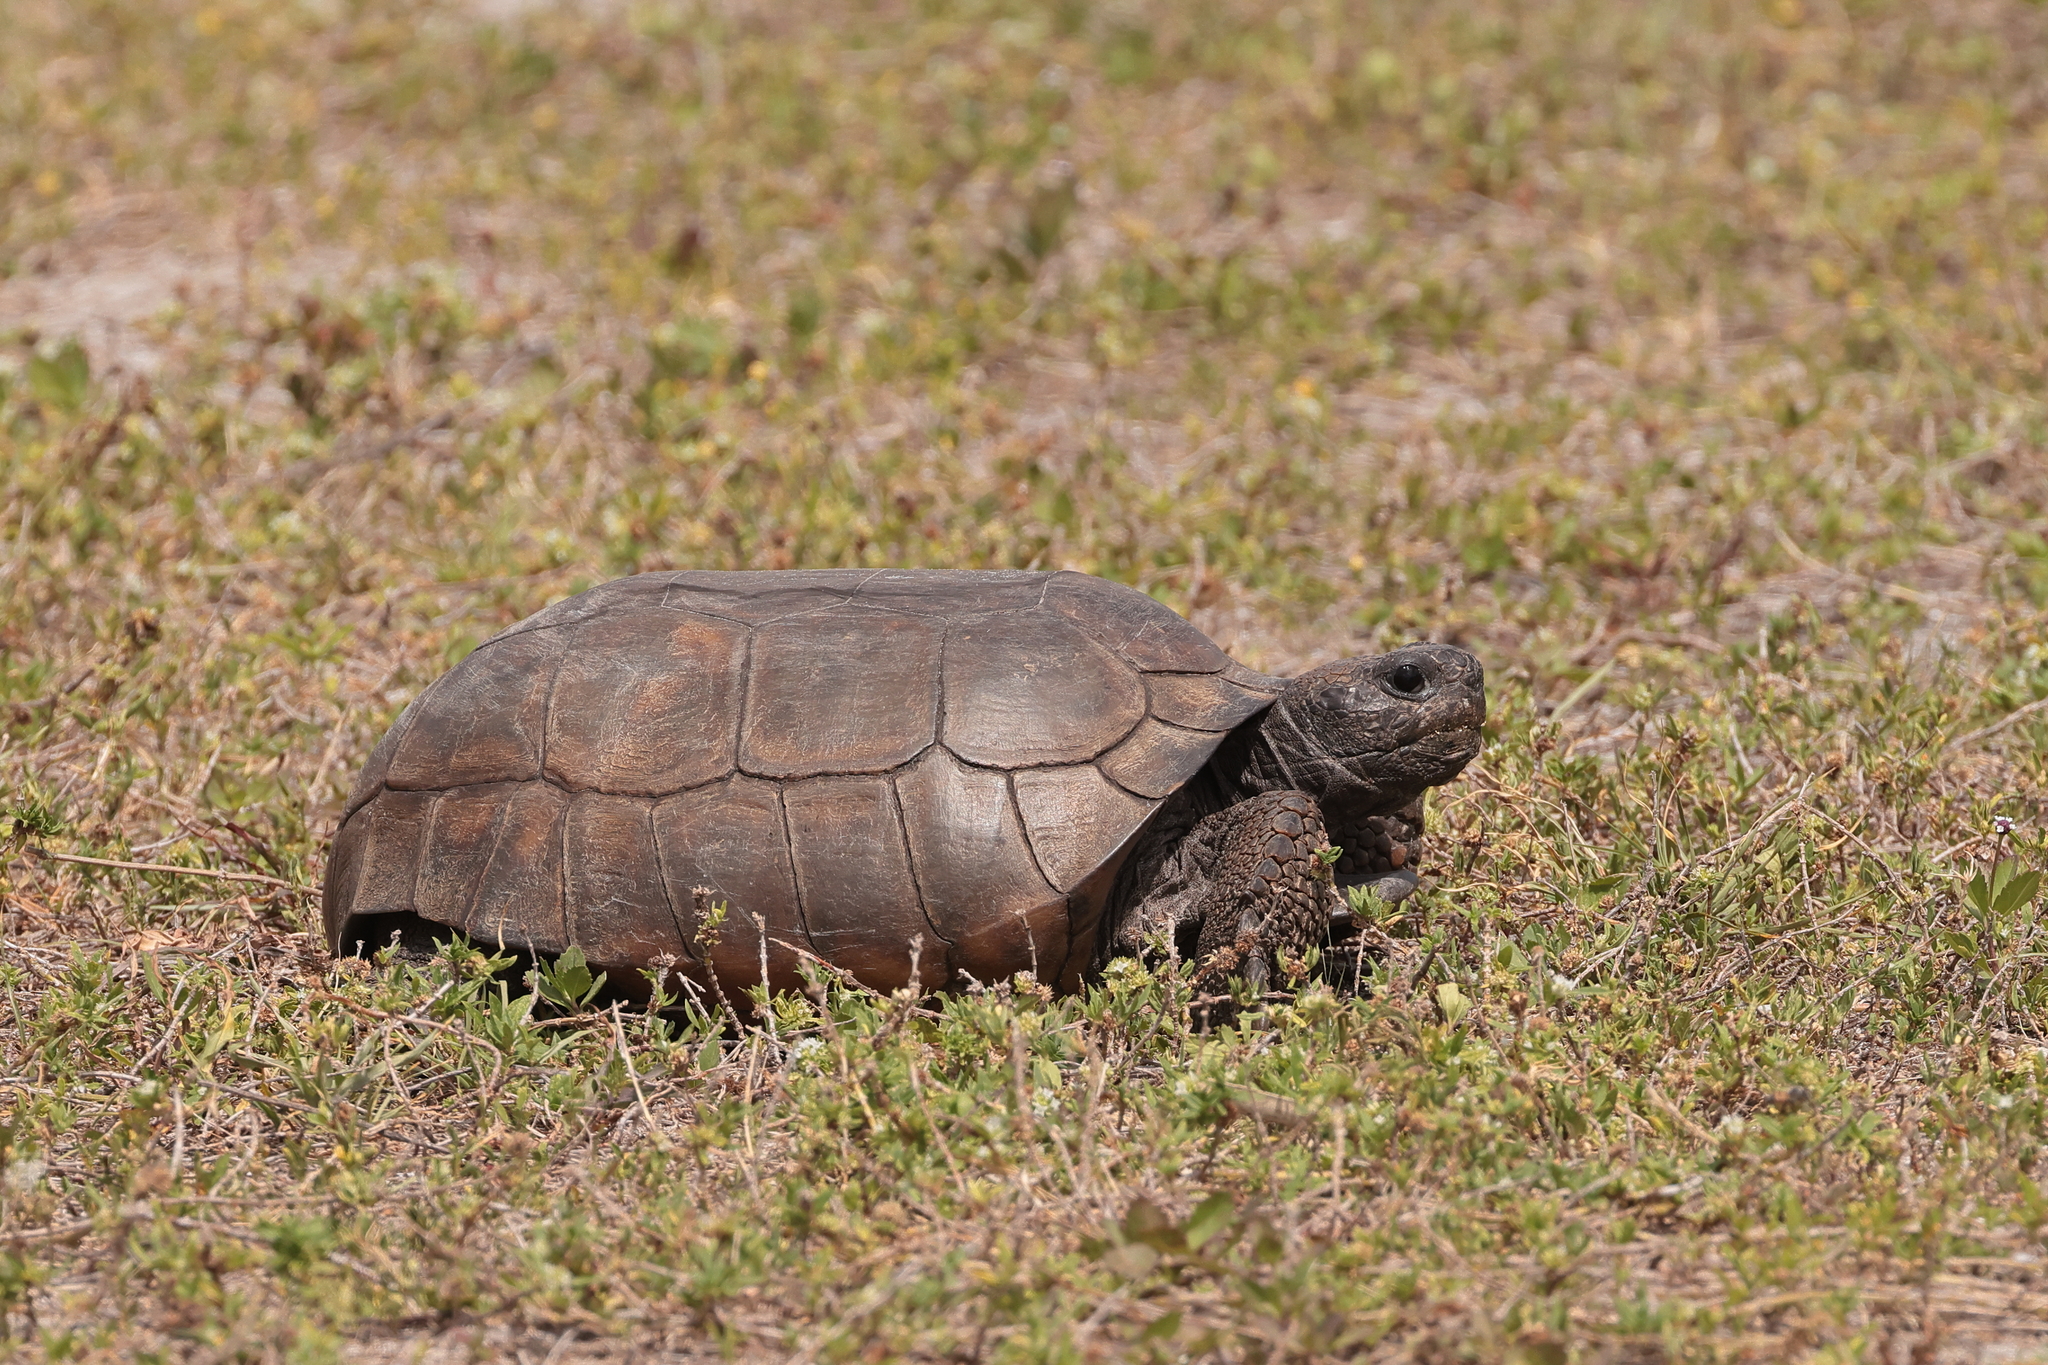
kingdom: Animalia
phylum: Chordata
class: Testudines
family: Testudinidae
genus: Gopherus
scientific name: Gopherus polyphemus
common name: Florida gopher tortoise
